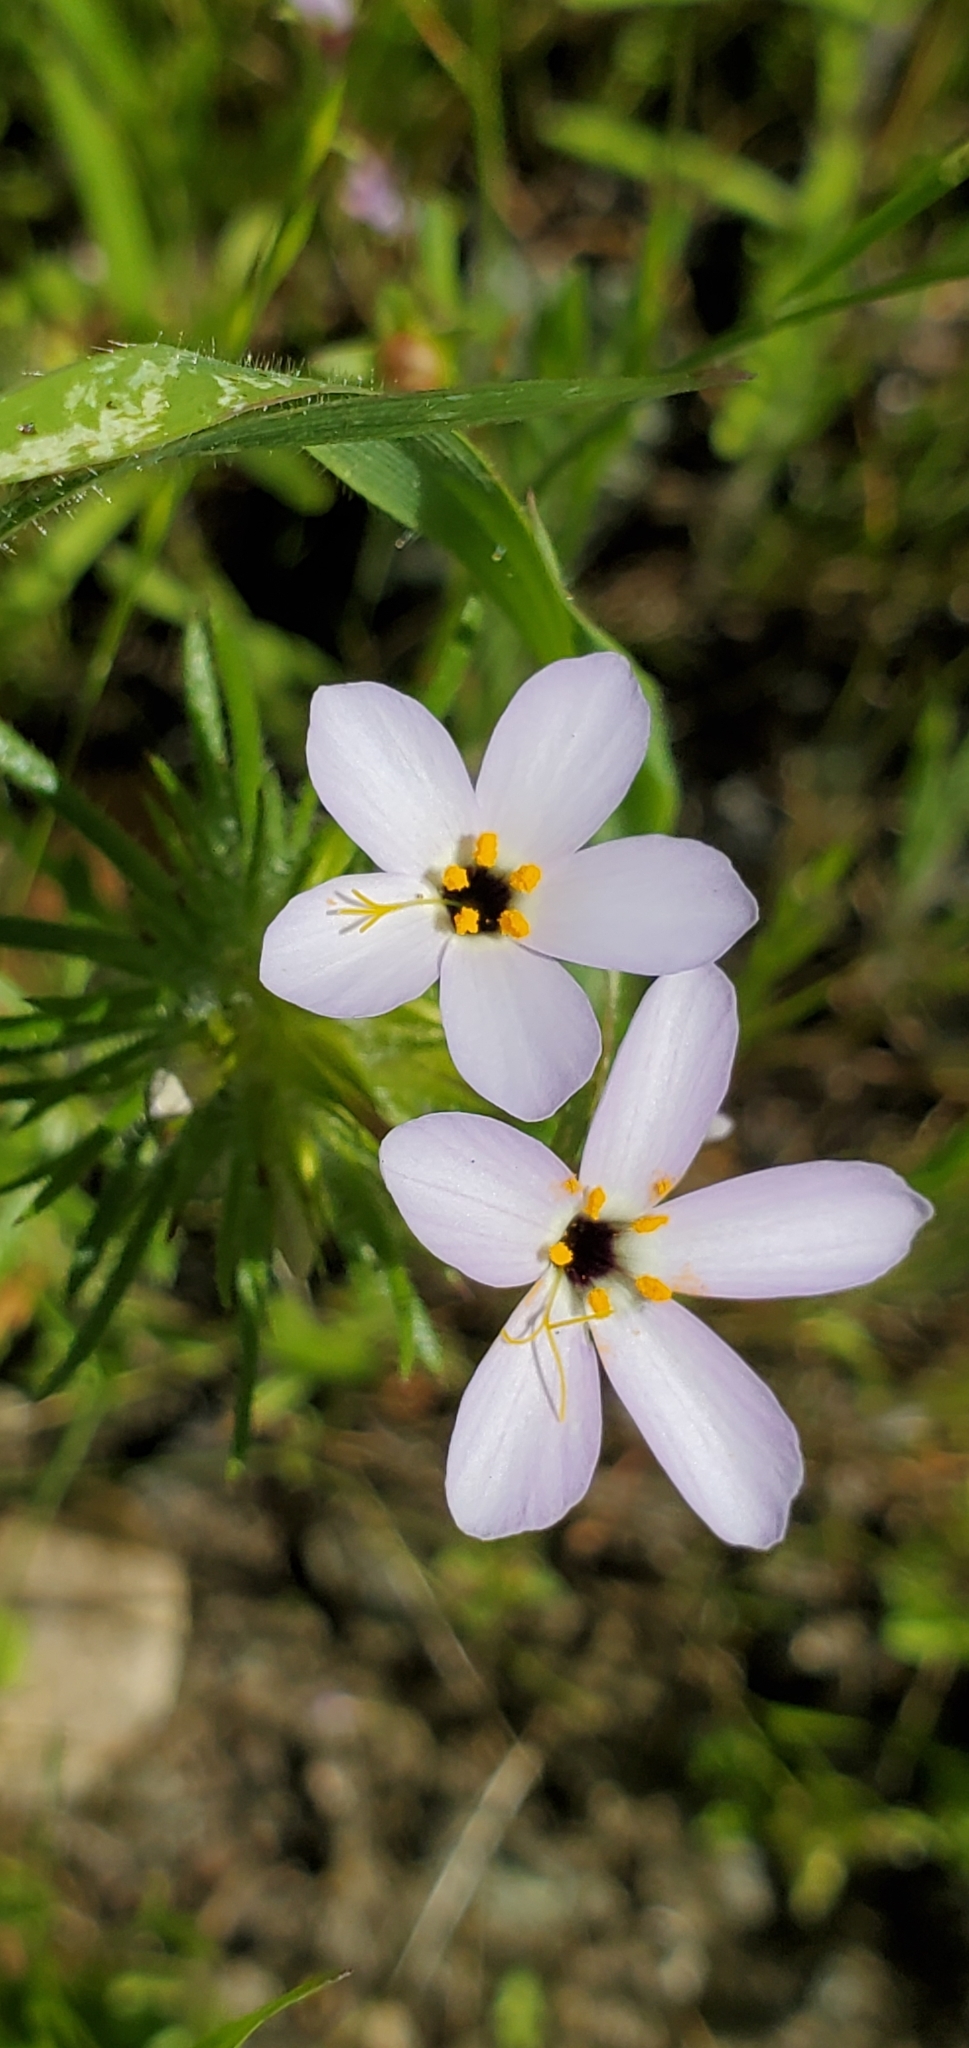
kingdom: Plantae
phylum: Tracheophyta
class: Magnoliopsida
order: Ericales
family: Polemoniaceae
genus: Leptosiphon
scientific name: Leptosiphon androsaceus
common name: False babystars
